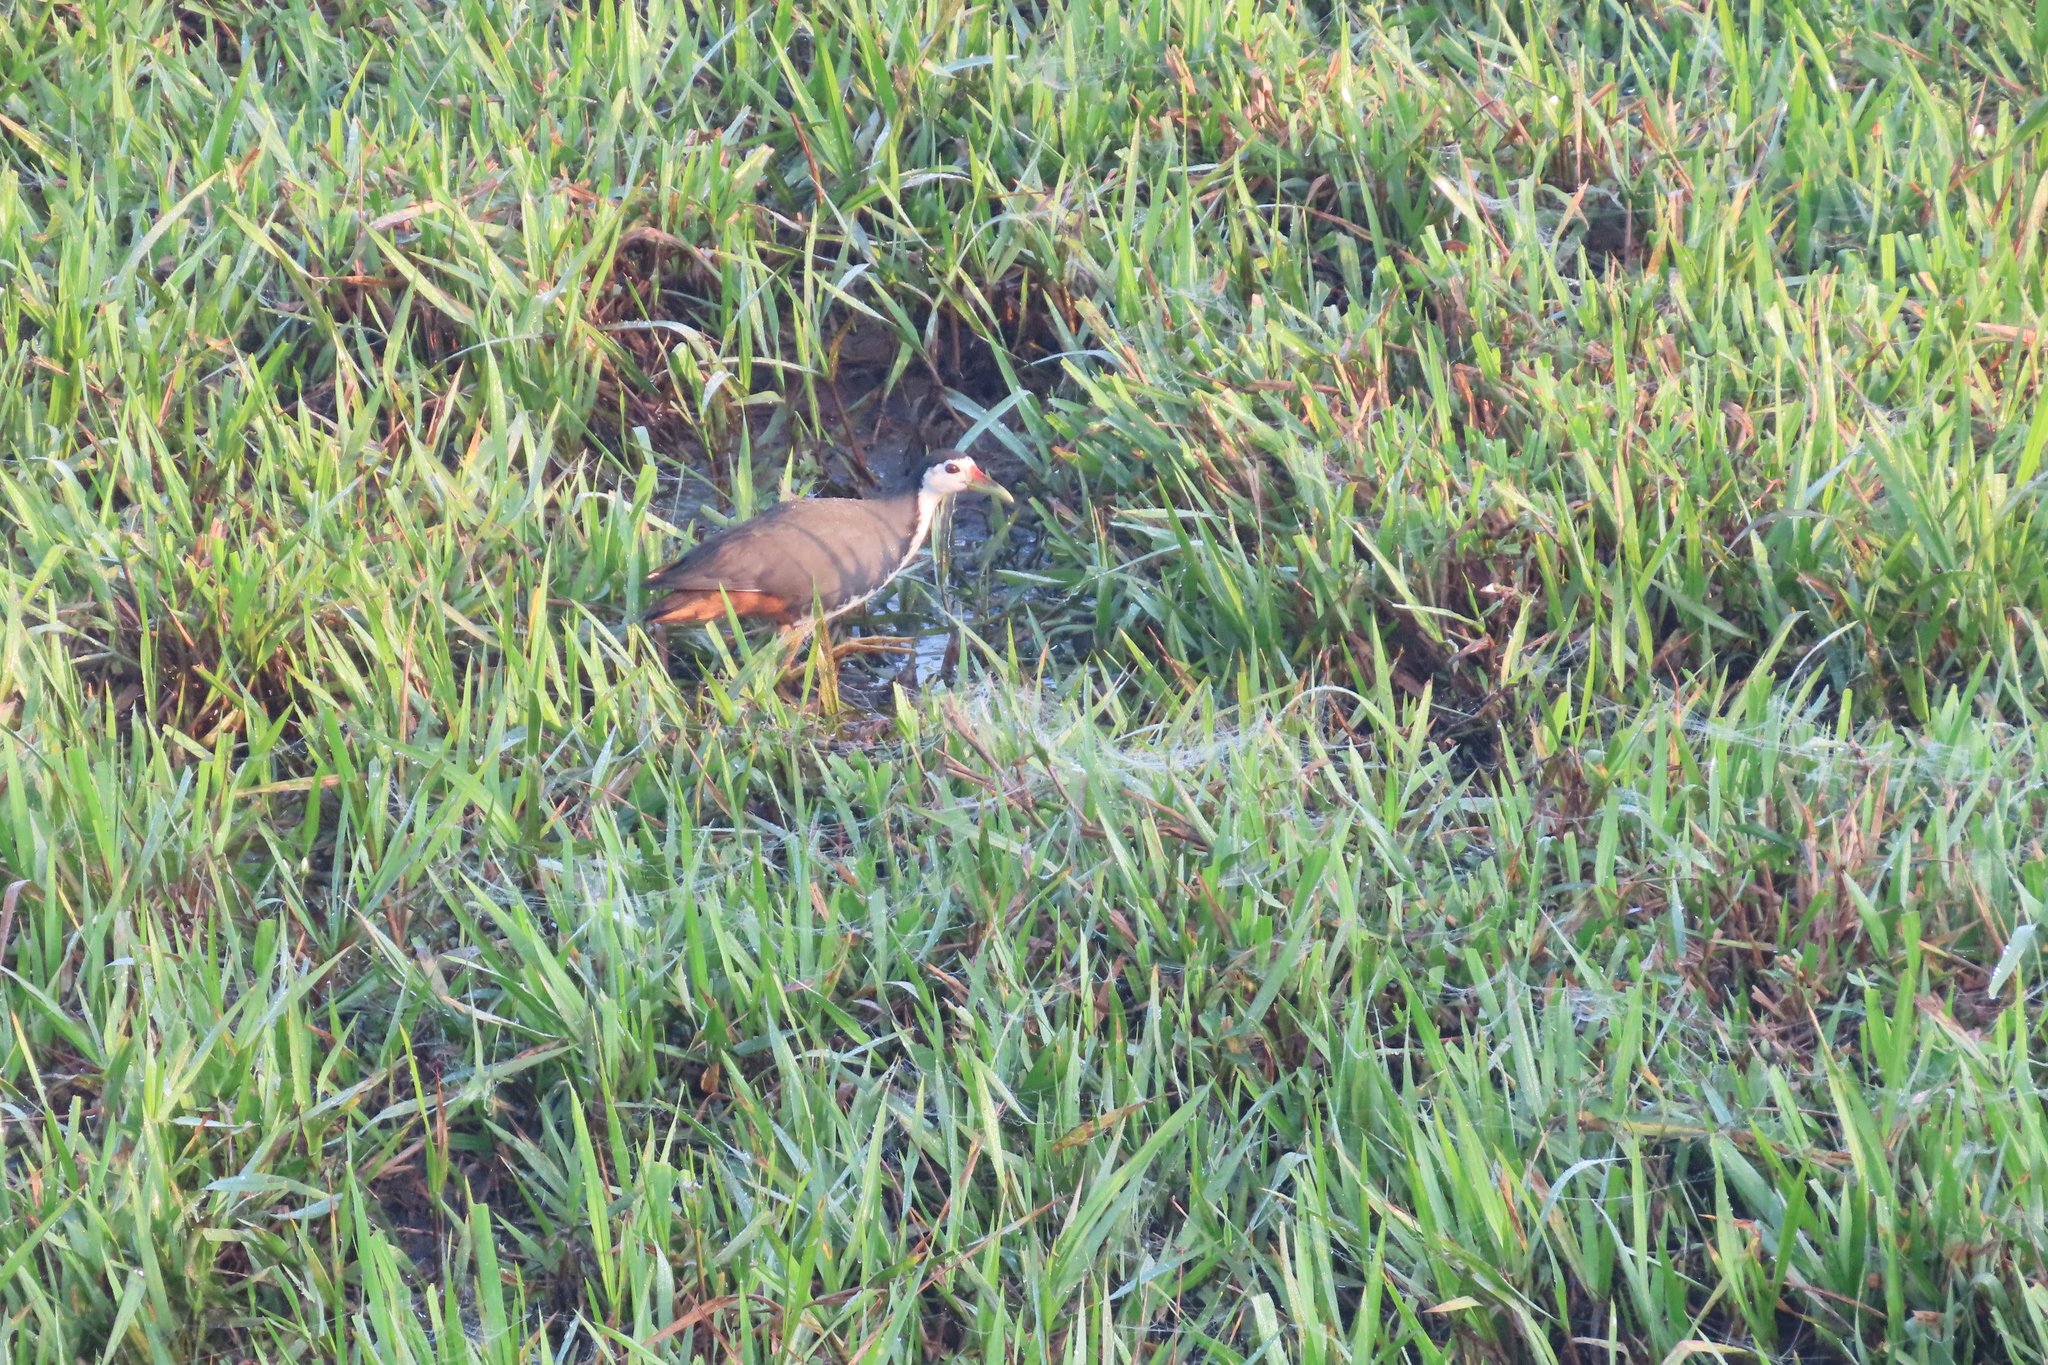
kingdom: Animalia
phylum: Chordata
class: Aves
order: Gruiformes
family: Rallidae
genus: Amaurornis
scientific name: Amaurornis phoenicurus
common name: White-breasted waterhen
